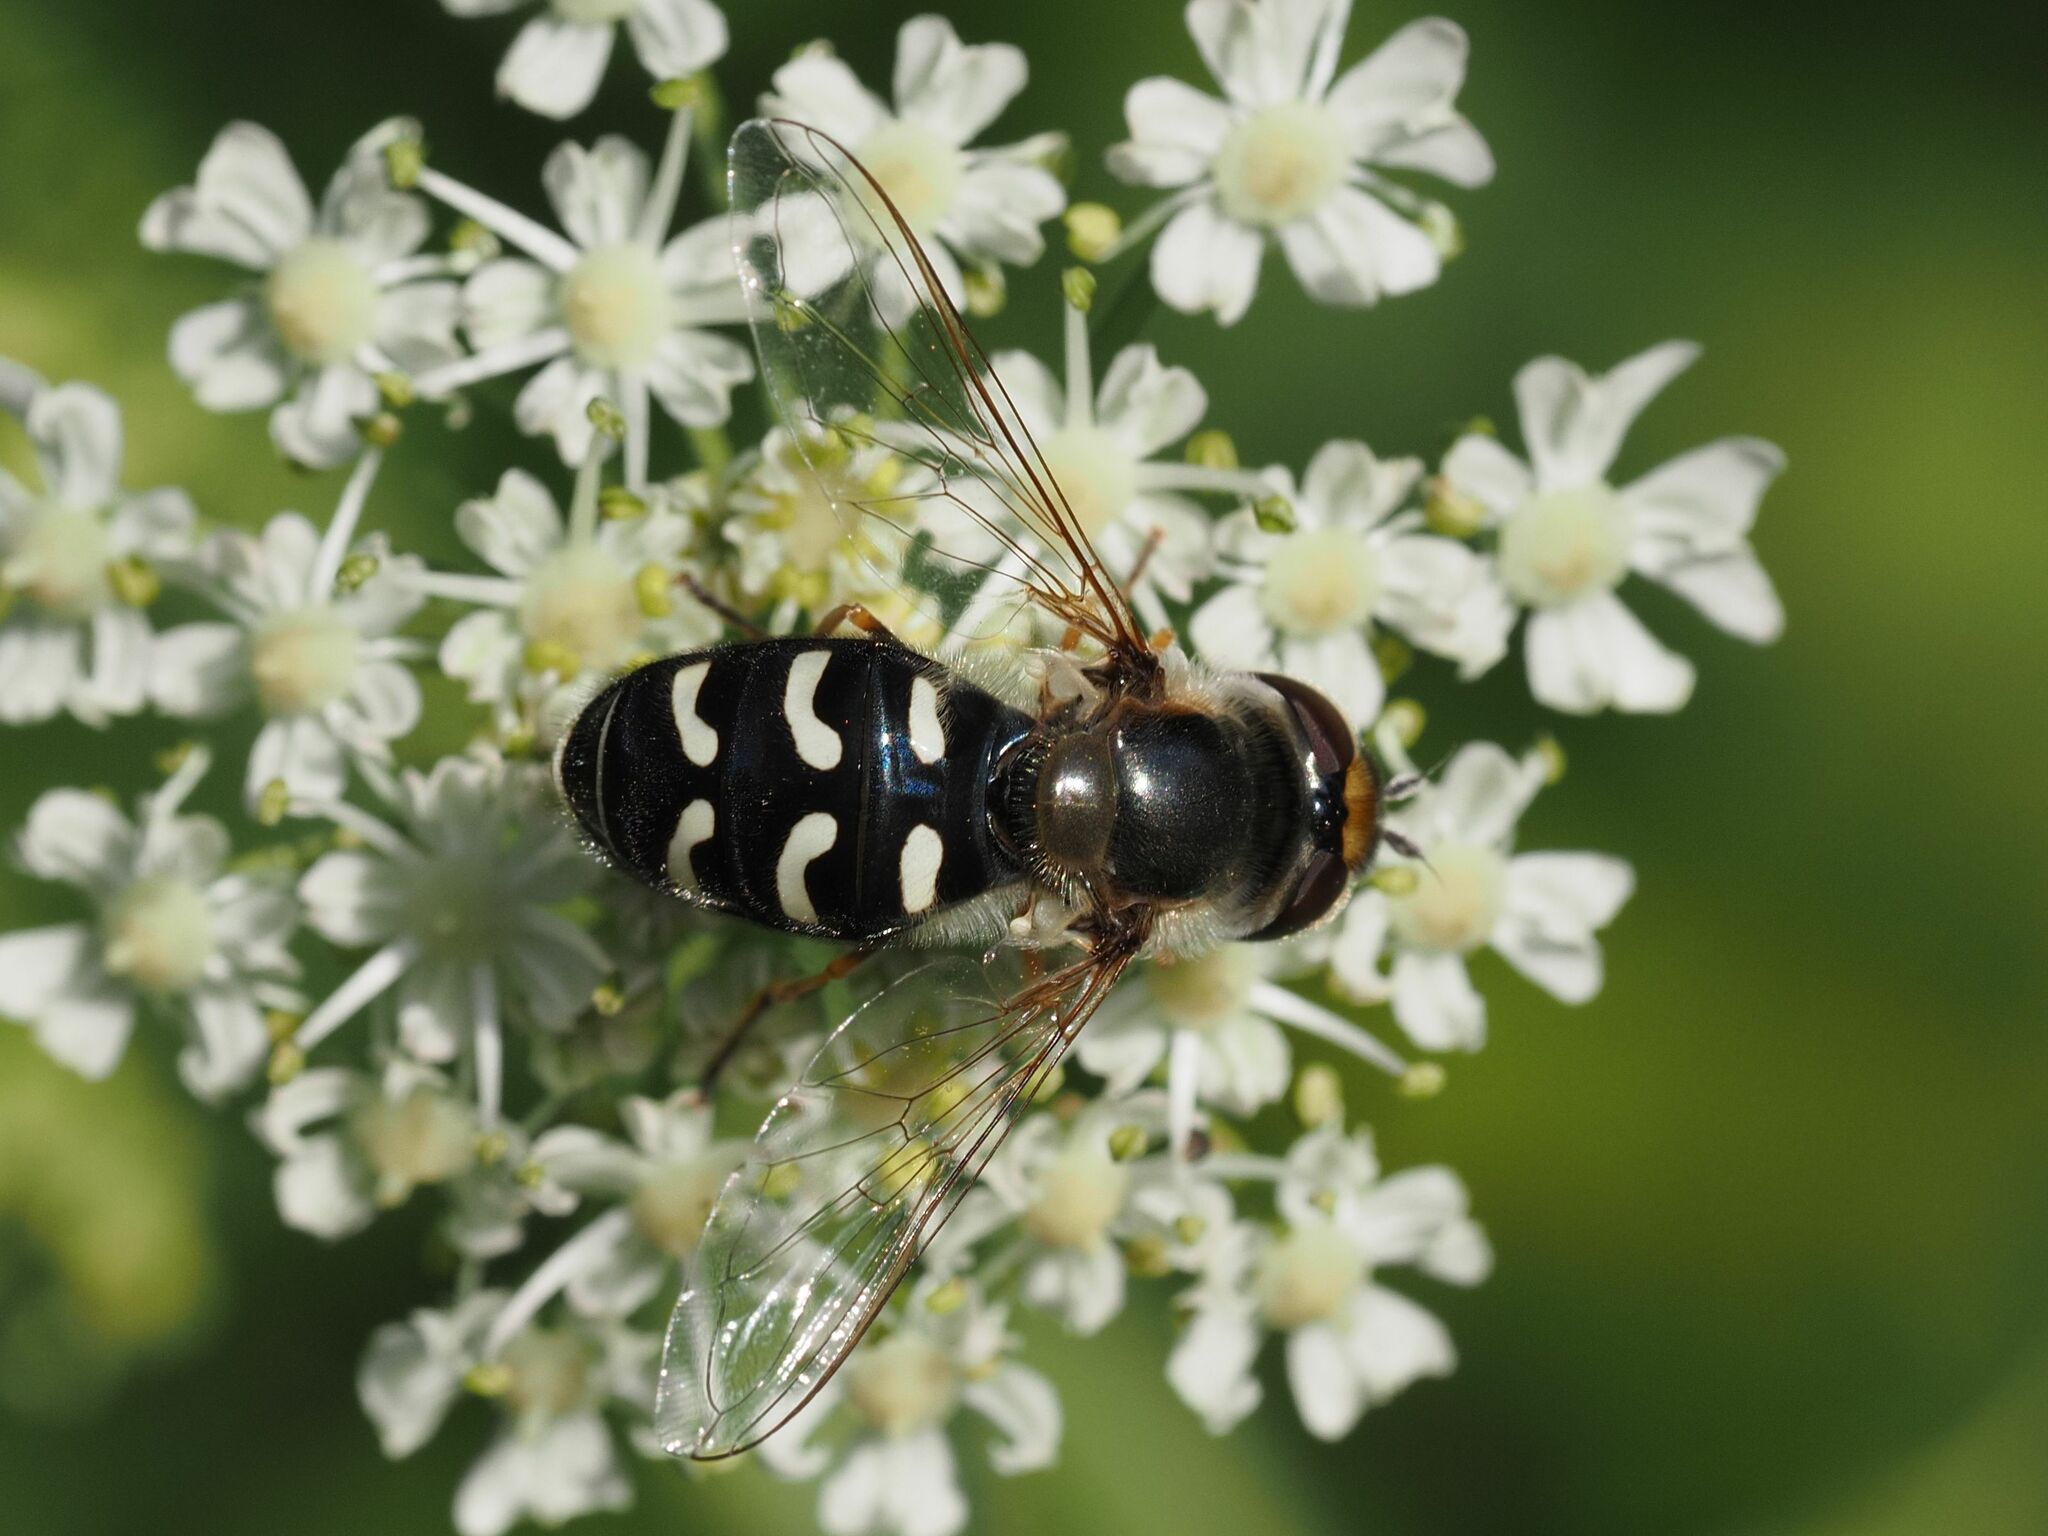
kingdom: Animalia
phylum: Arthropoda
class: Insecta
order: Diptera
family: Syrphidae
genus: Scaeva
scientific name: Scaeva pyrastri
